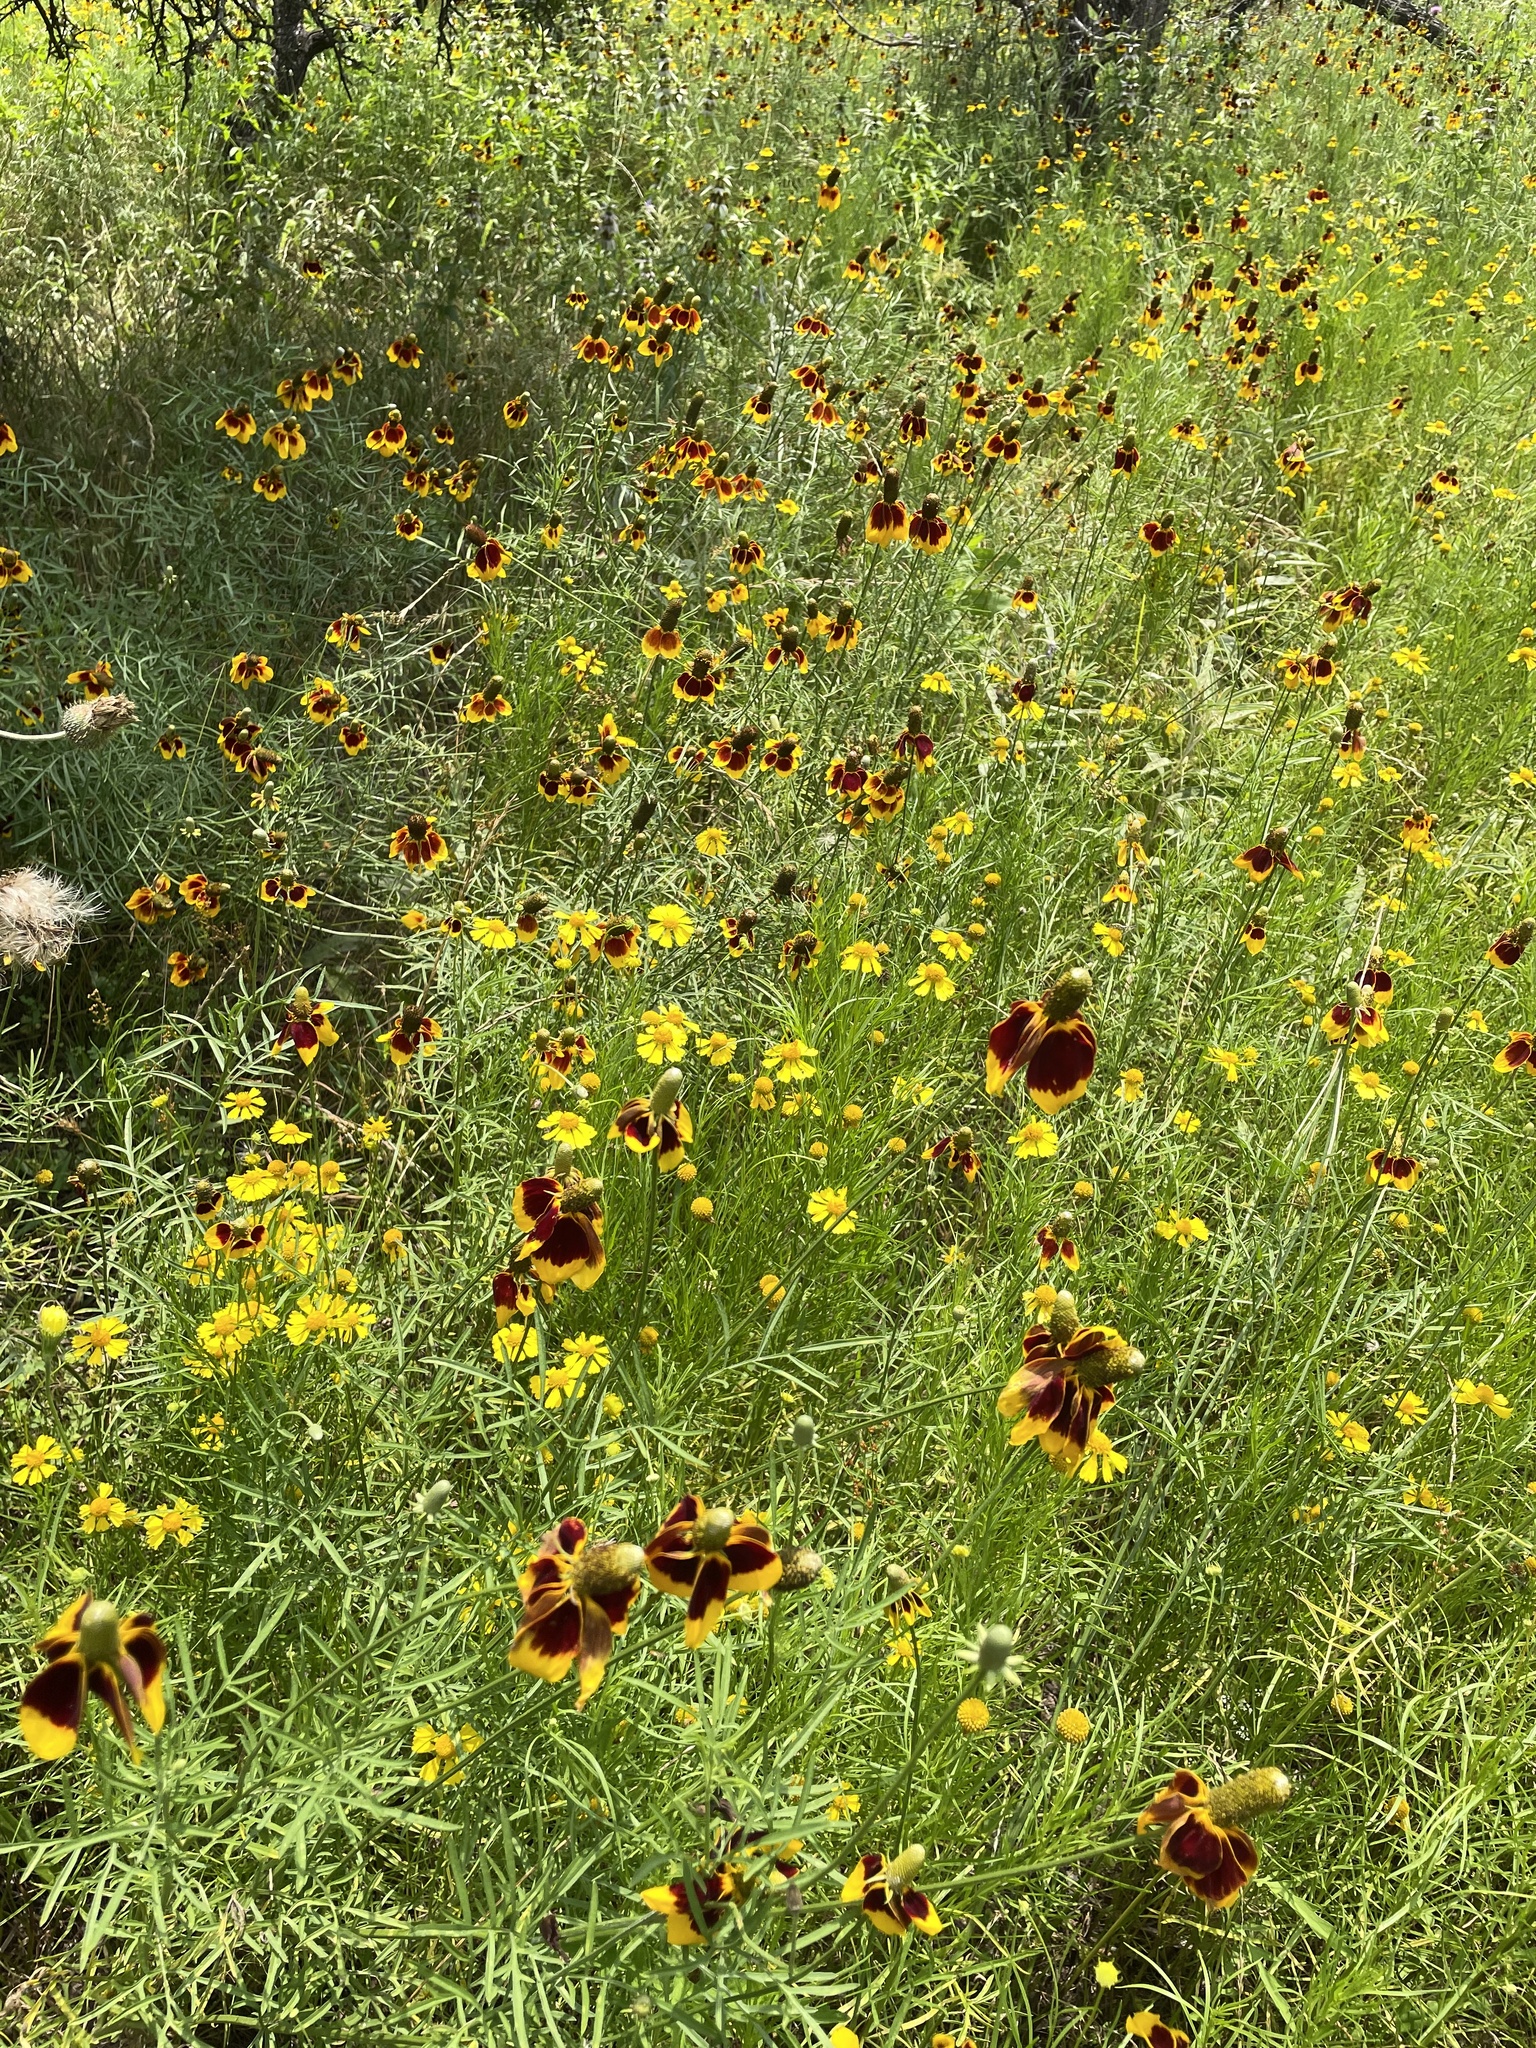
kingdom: Plantae
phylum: Tracheophyta
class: Magnoliopsida
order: Asterales
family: Asteraceae
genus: Ratibida
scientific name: Ratibida columnifera
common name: Prairie coneflower
